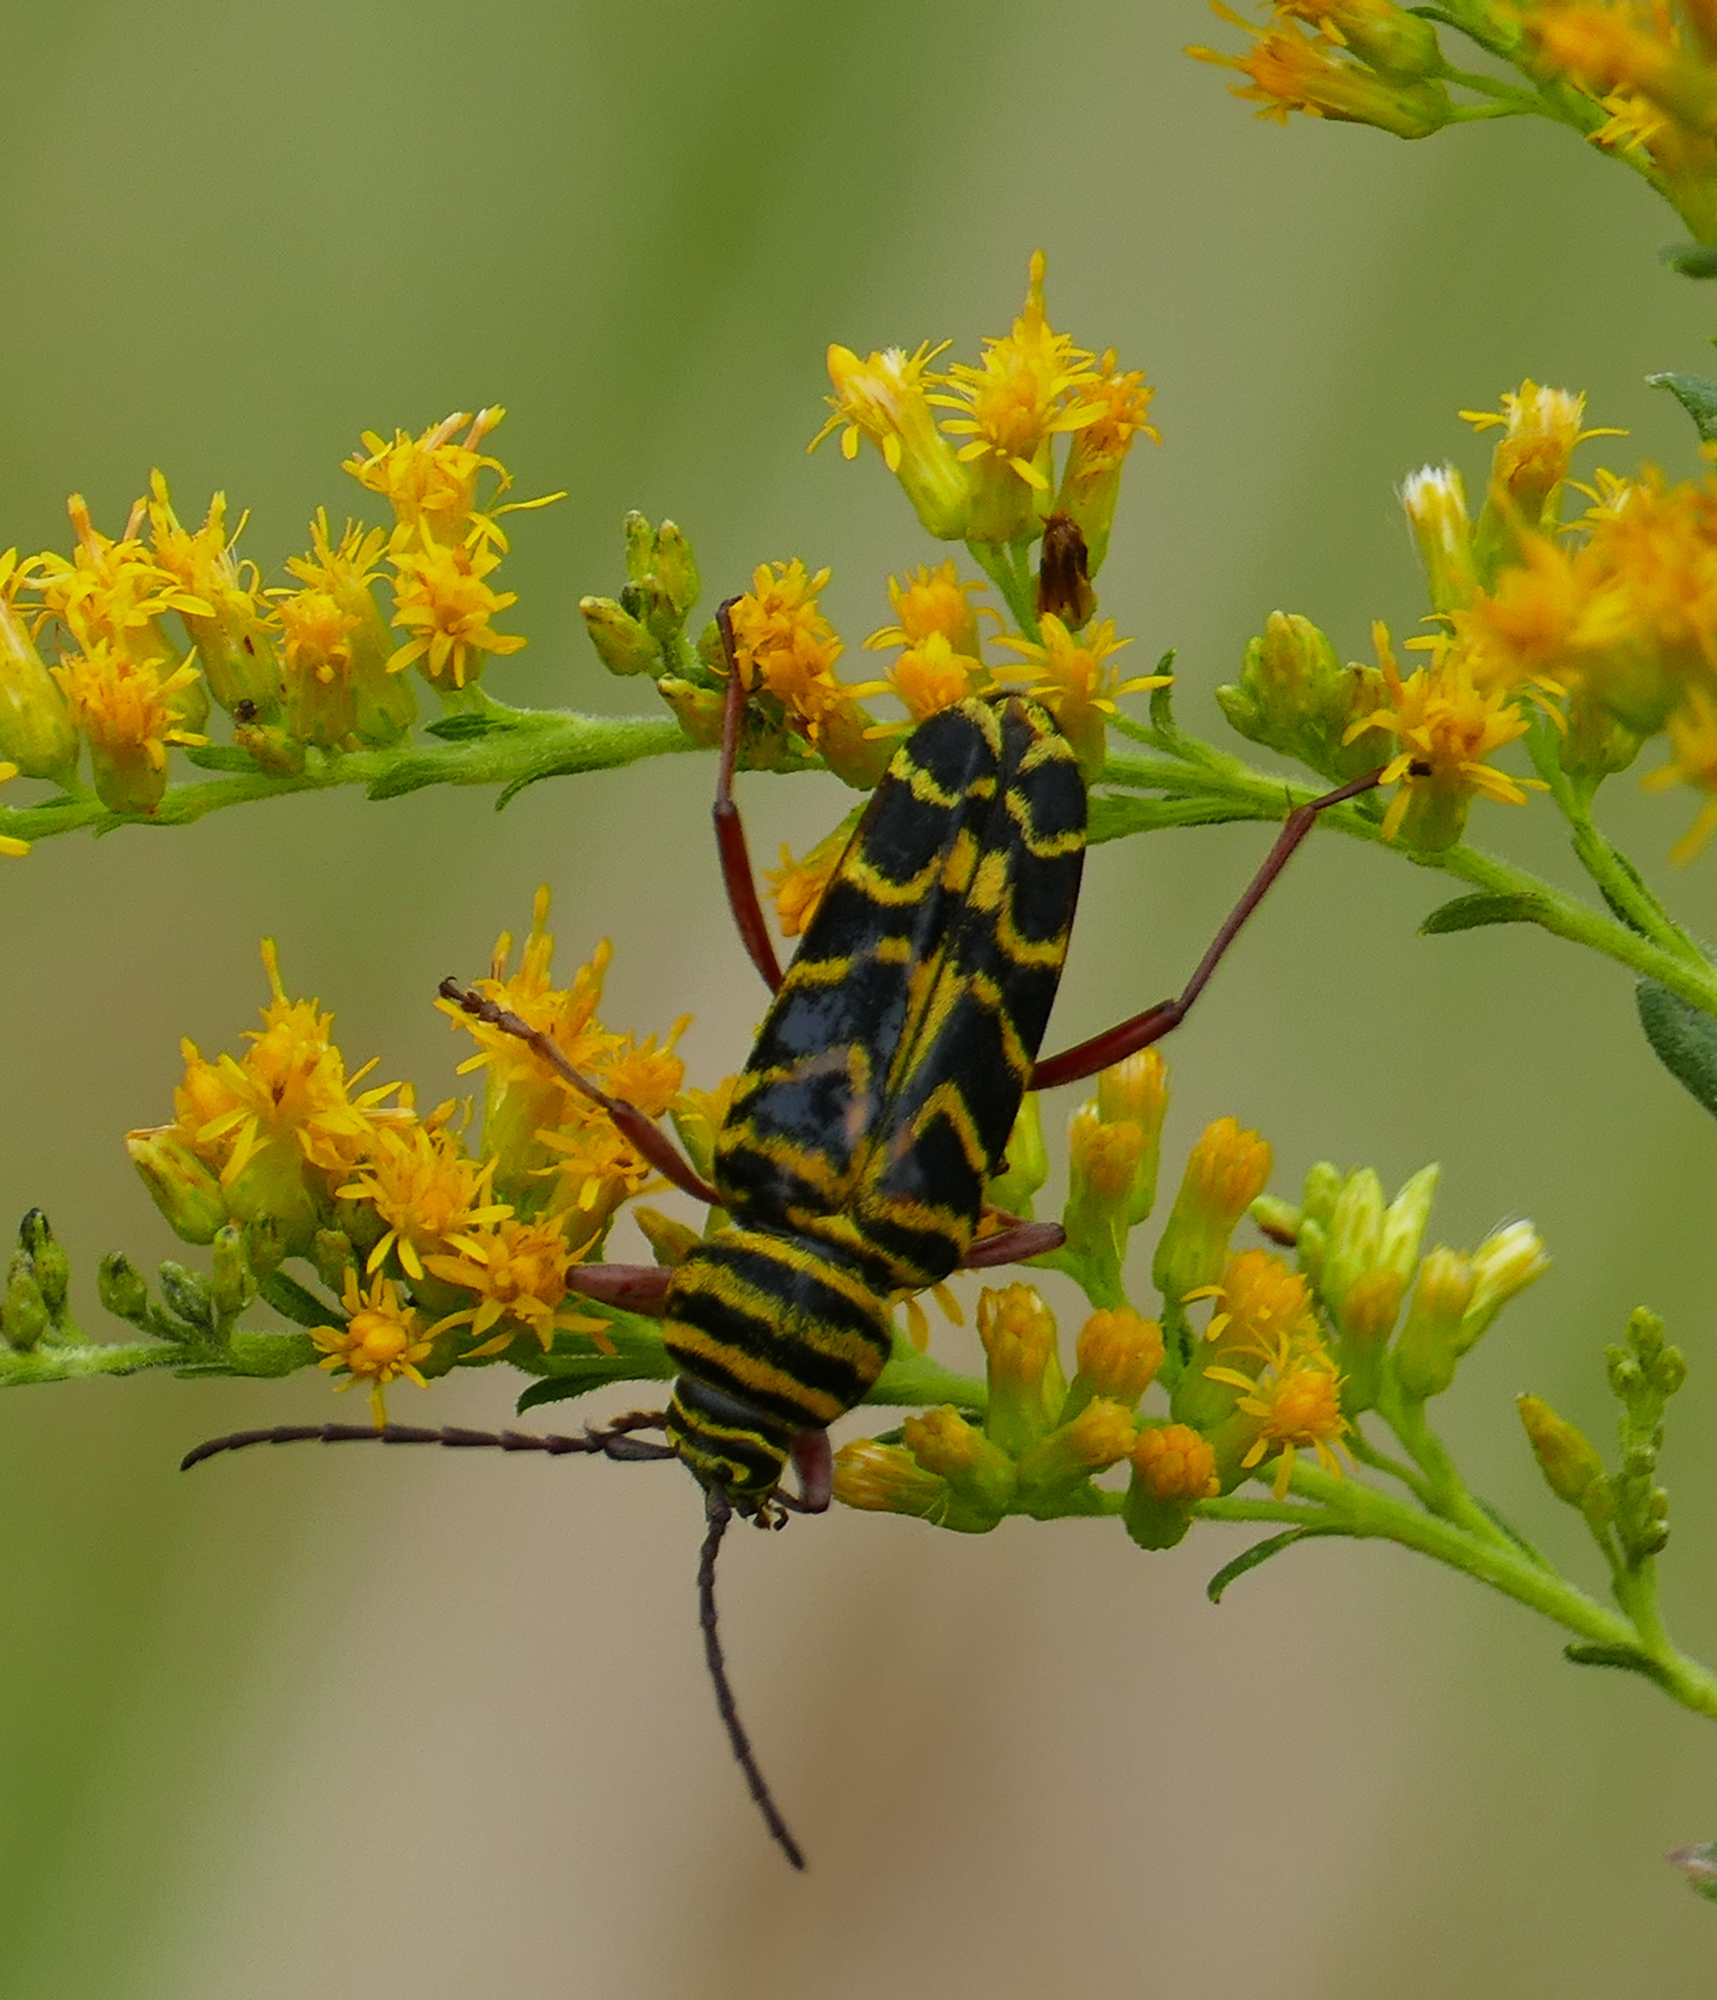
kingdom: Animalia
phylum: Arthropoda
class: Insecta
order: Coleoptera
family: Cerambycidae
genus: Megacyllene
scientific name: Megacyllene robiniae
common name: Locust borer
